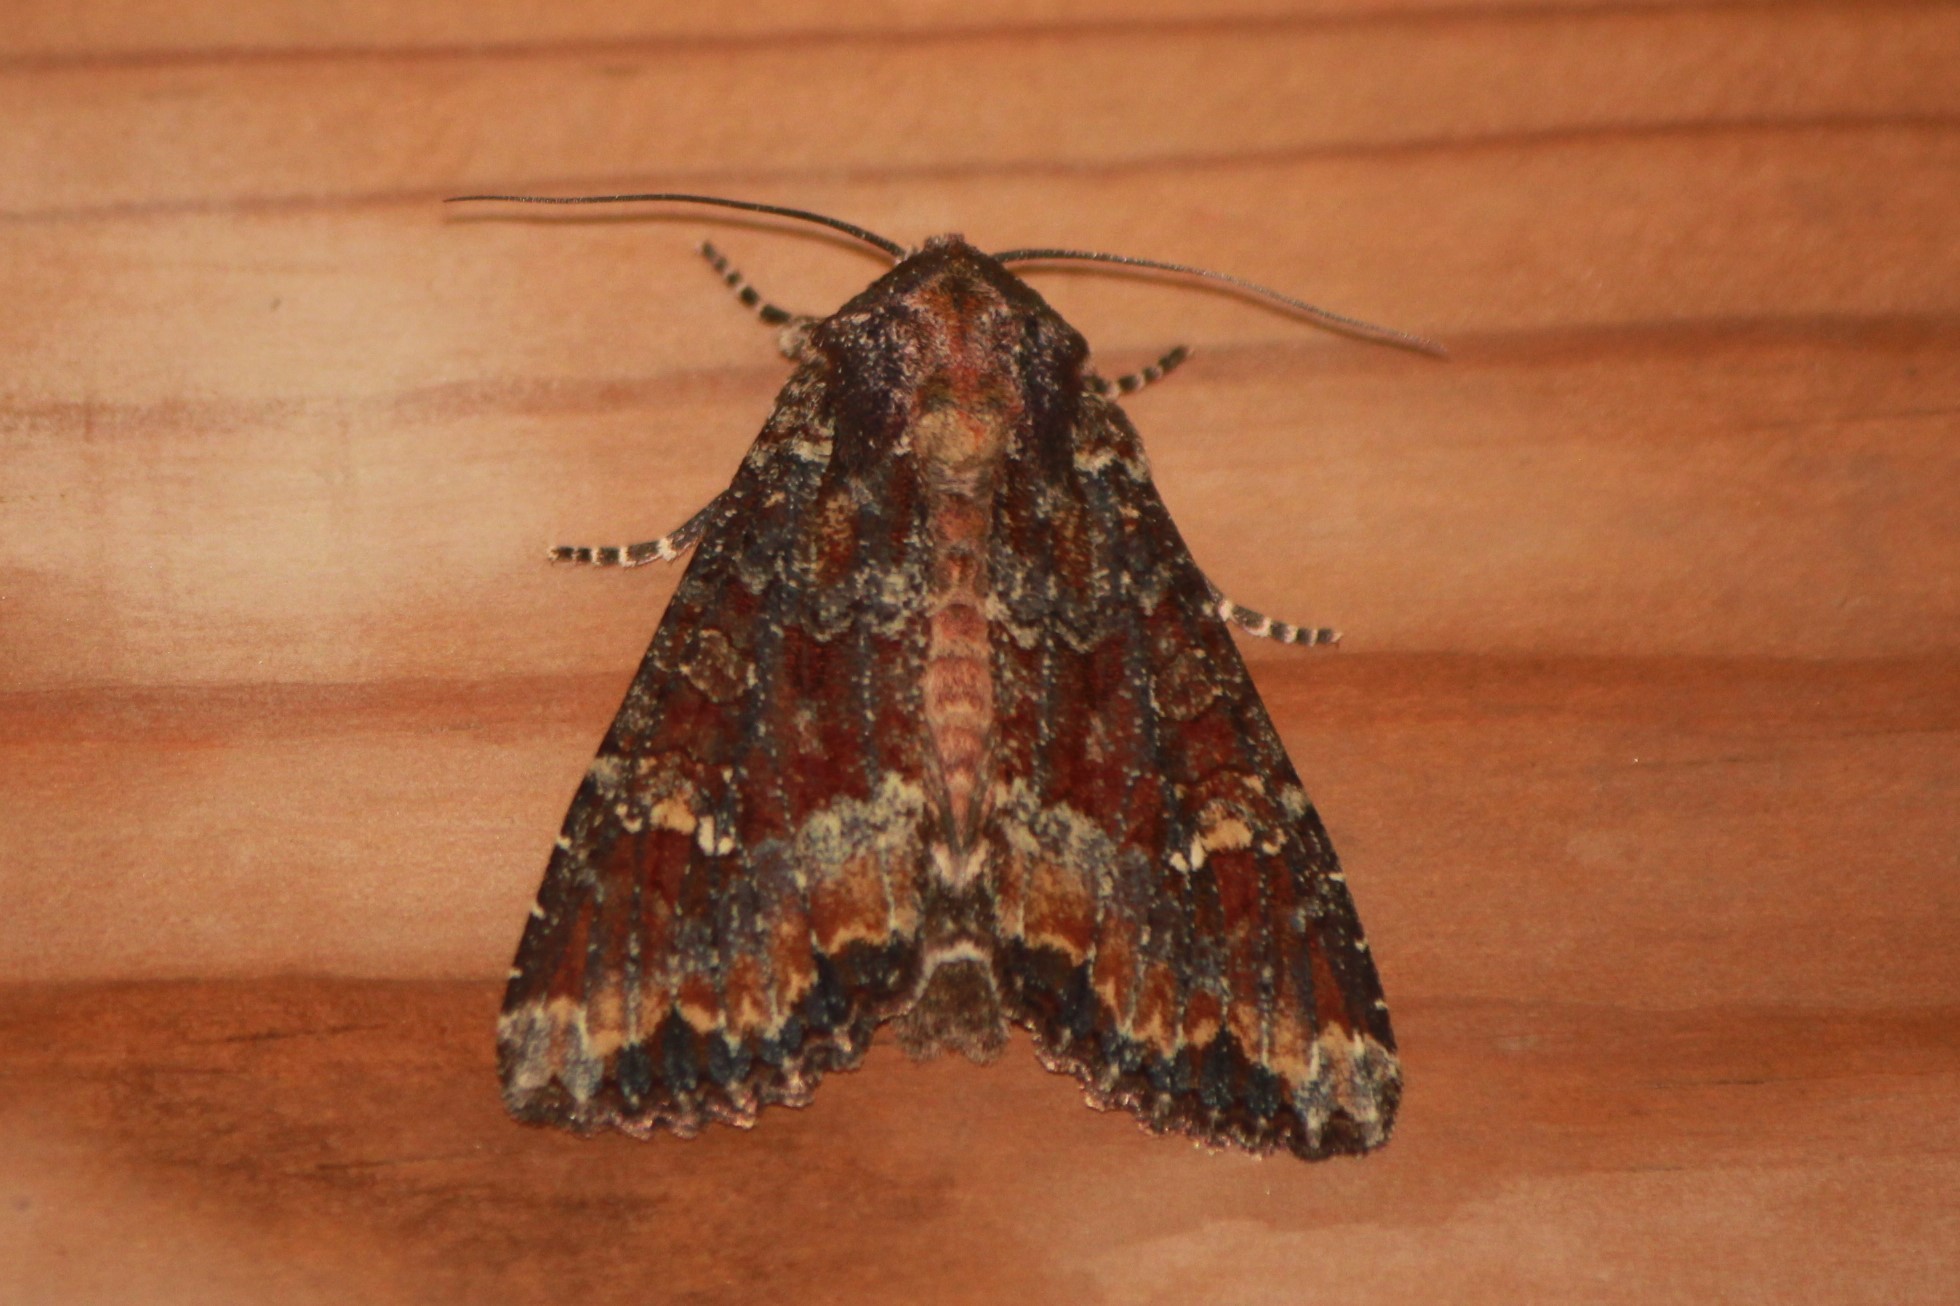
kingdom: Animalia
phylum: Arthropoda
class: Insecta
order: Lepidoptera
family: Noctuidae
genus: Apamea
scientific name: Apamea amputatrix
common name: Yellow-headed cutworm moth
